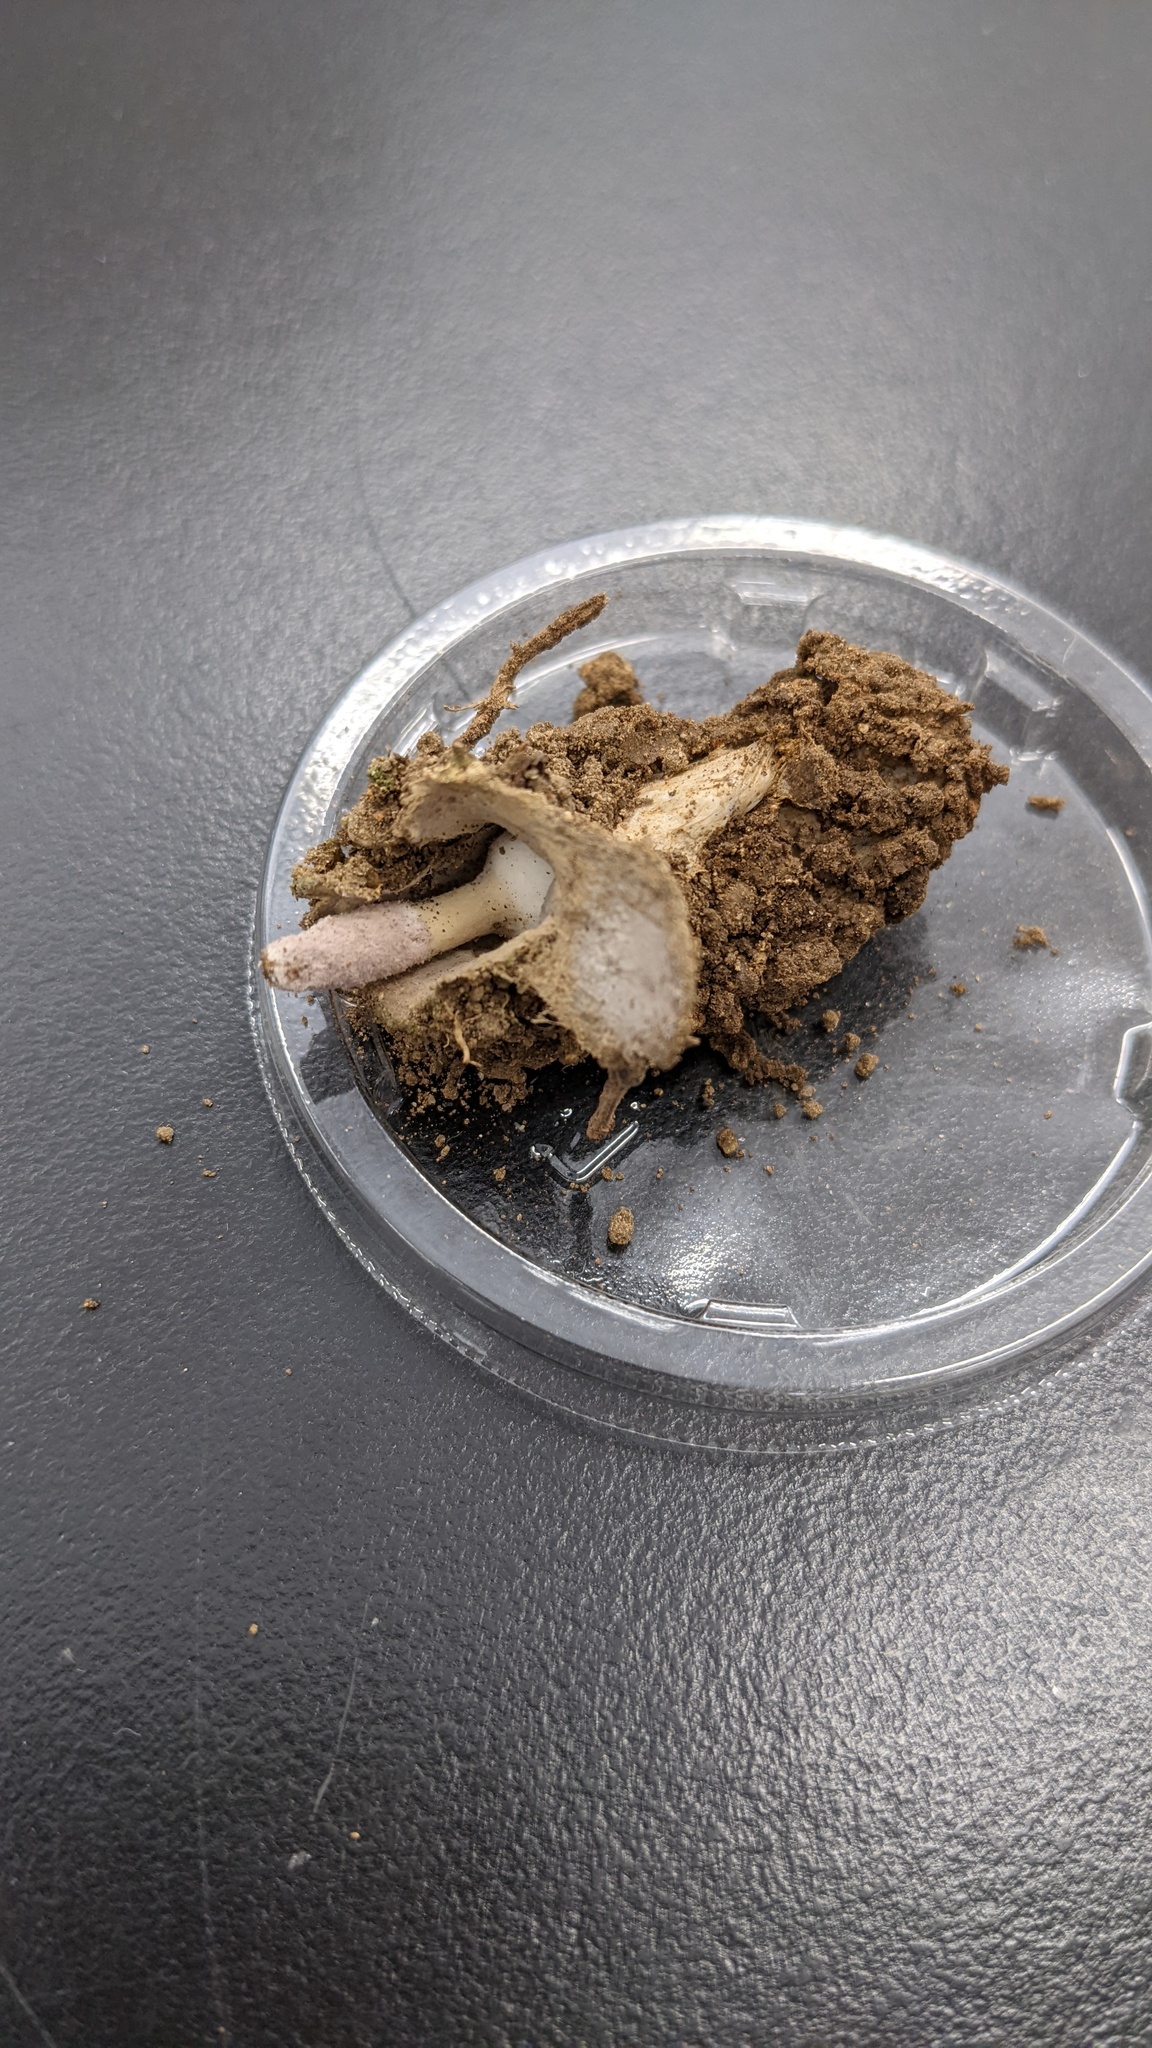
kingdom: Fungi
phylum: Ascomycota
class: Sordariomycetes
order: Hypocreales
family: Ophiocordycipitaceae
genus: Purpureocillium
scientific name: Purpureocillium atypicola
